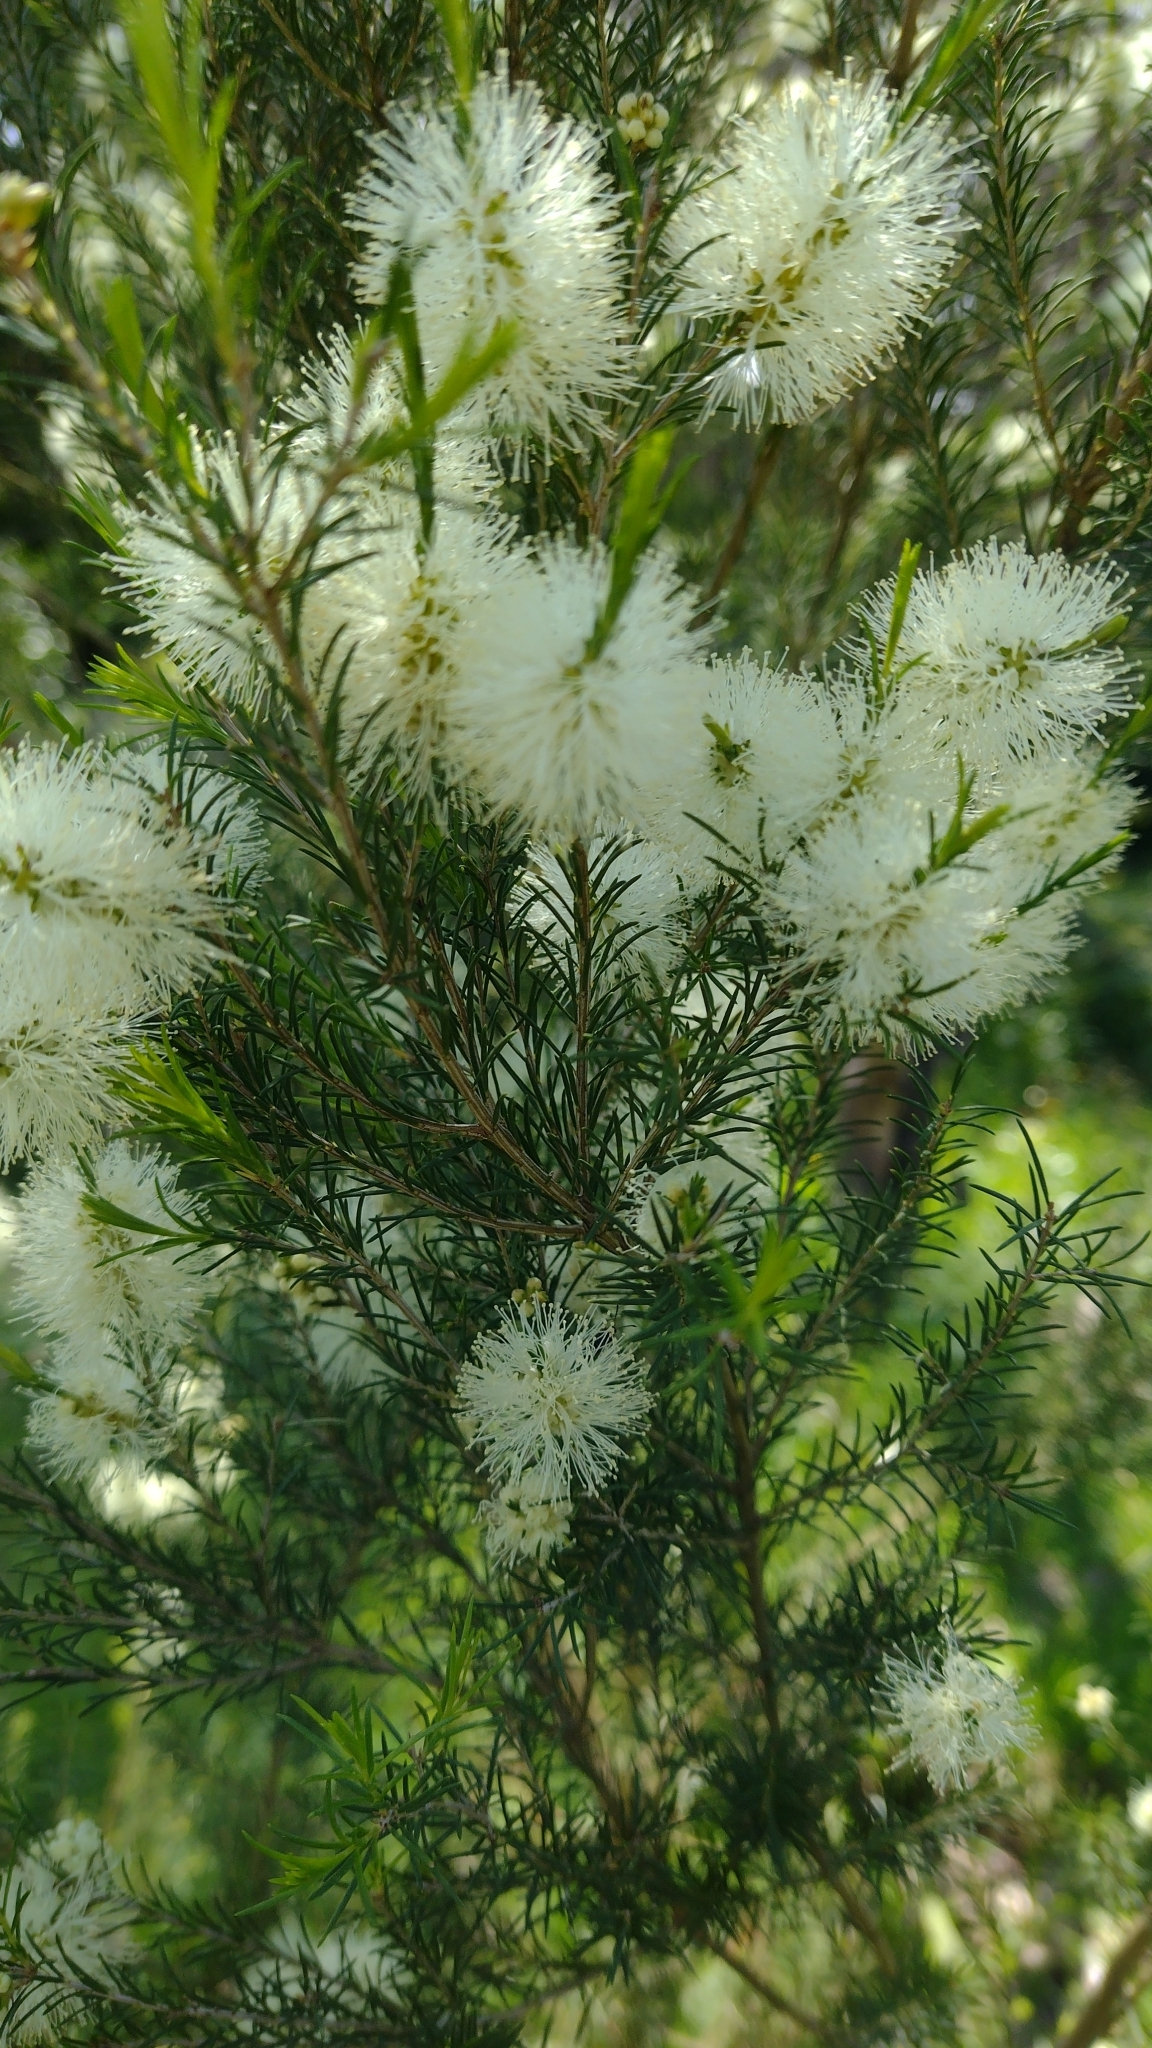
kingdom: Plantae
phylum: Tracheophyta
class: Magnoliopsida
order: Myrtales
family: Myrtaceae
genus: Melaleuca
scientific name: Melaleuca ericifolia
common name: Paperbark teatree
